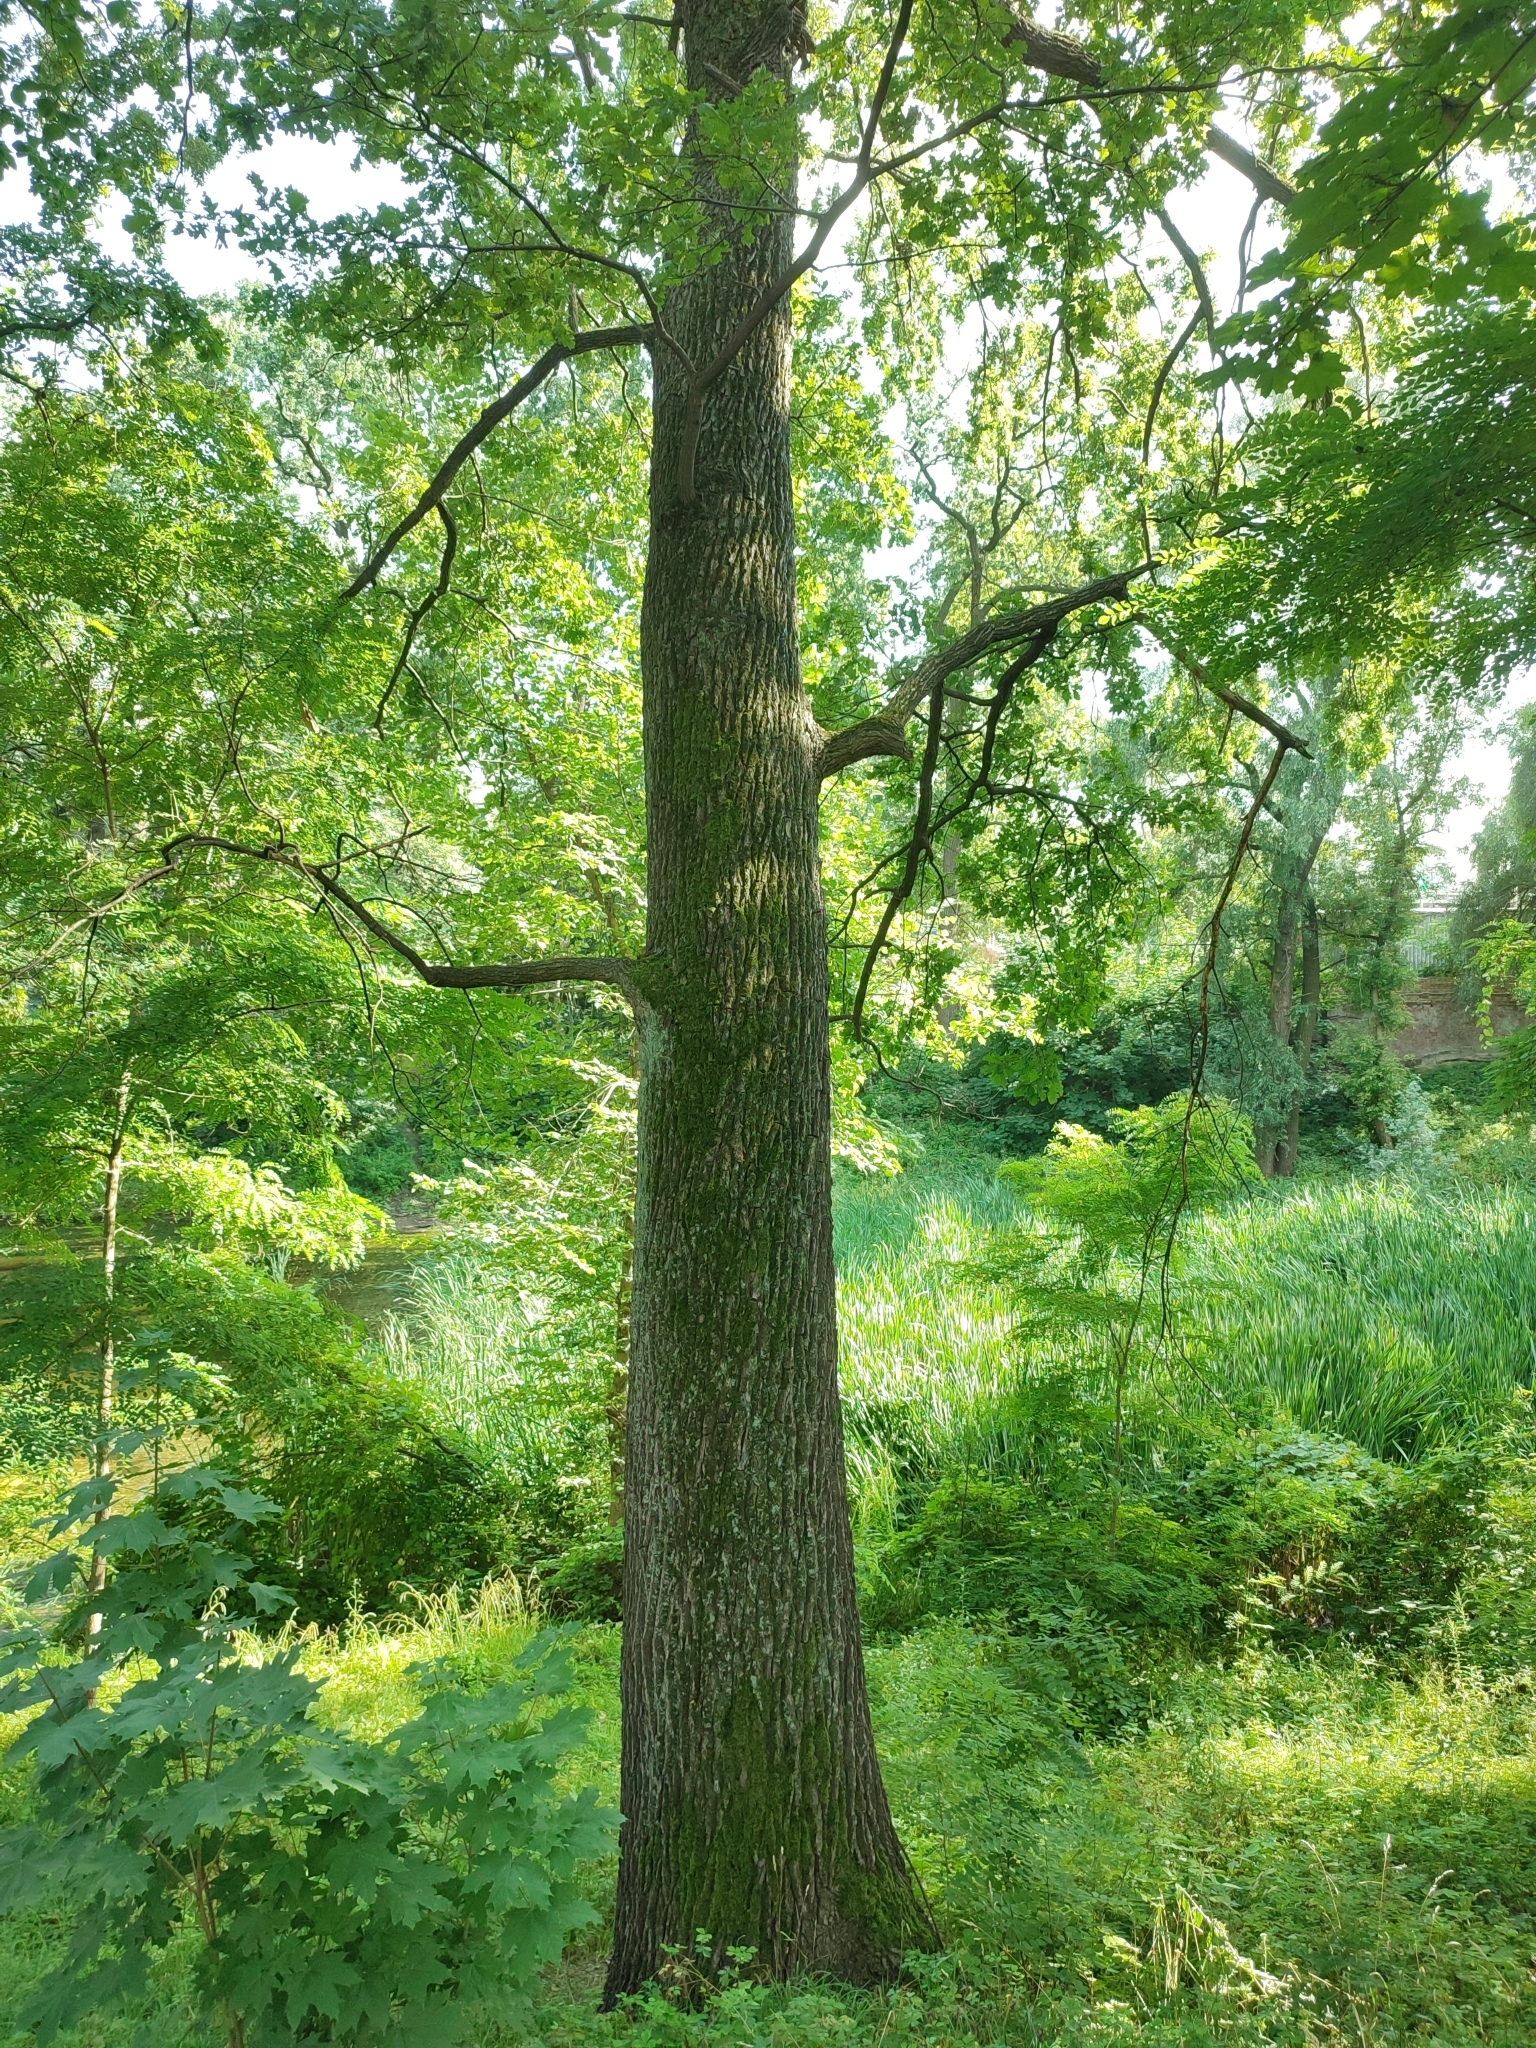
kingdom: Plantae
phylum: Tracheophyta
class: Magnoliopsida
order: Fagales
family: Fagaceae
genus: Quercus
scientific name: Quercus robur
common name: Pedunculate oak
